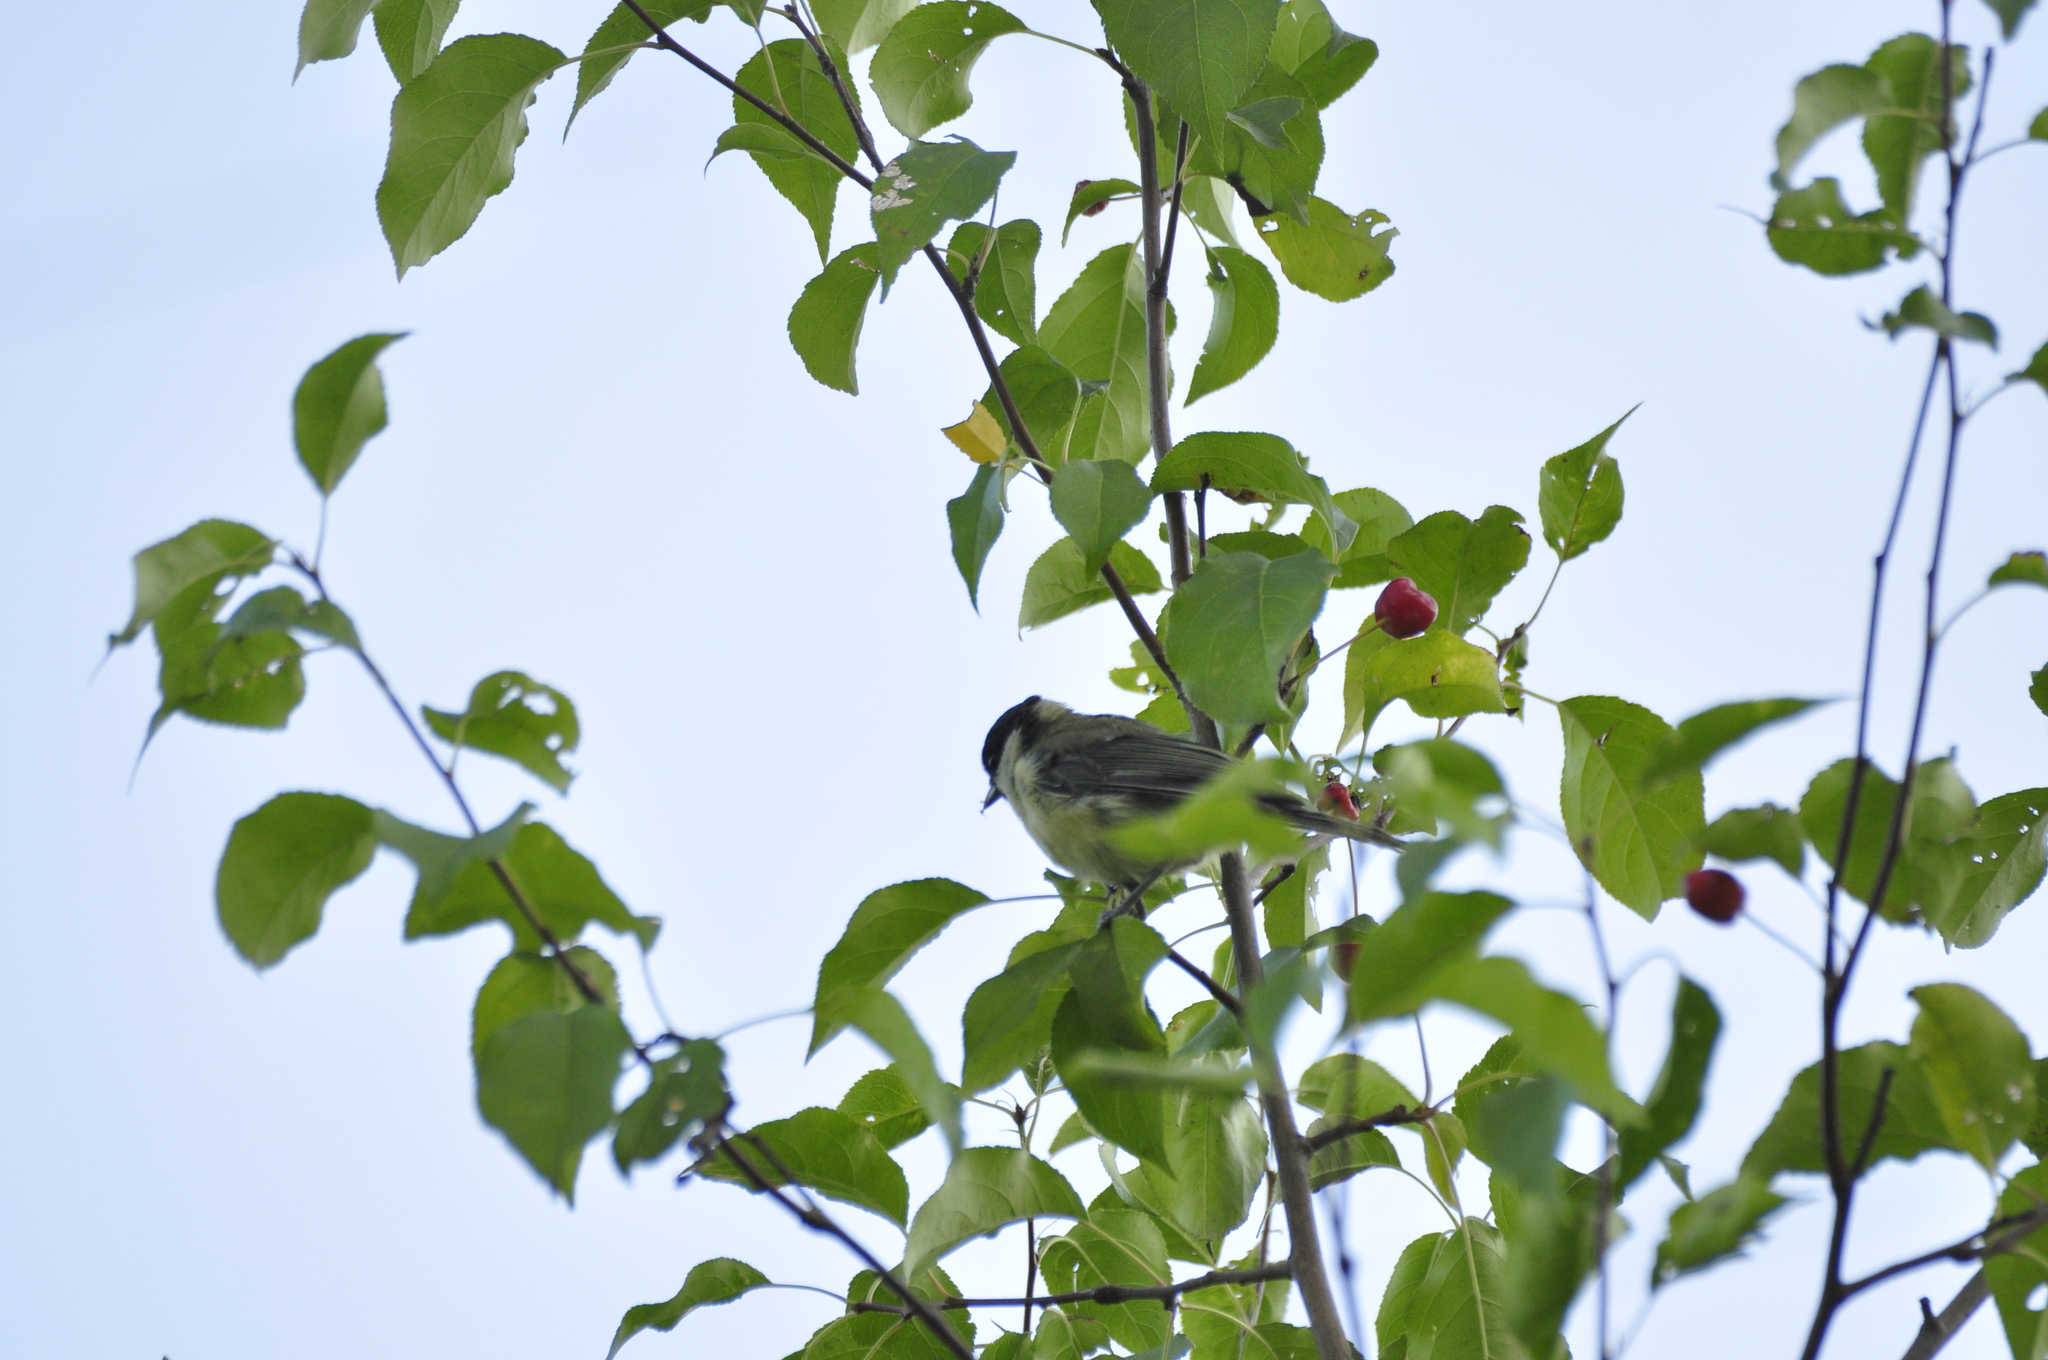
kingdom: Animalia
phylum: Chordata
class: Aves
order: Passeriformes
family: Paridae
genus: Parus
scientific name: Parus major
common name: Great tit
